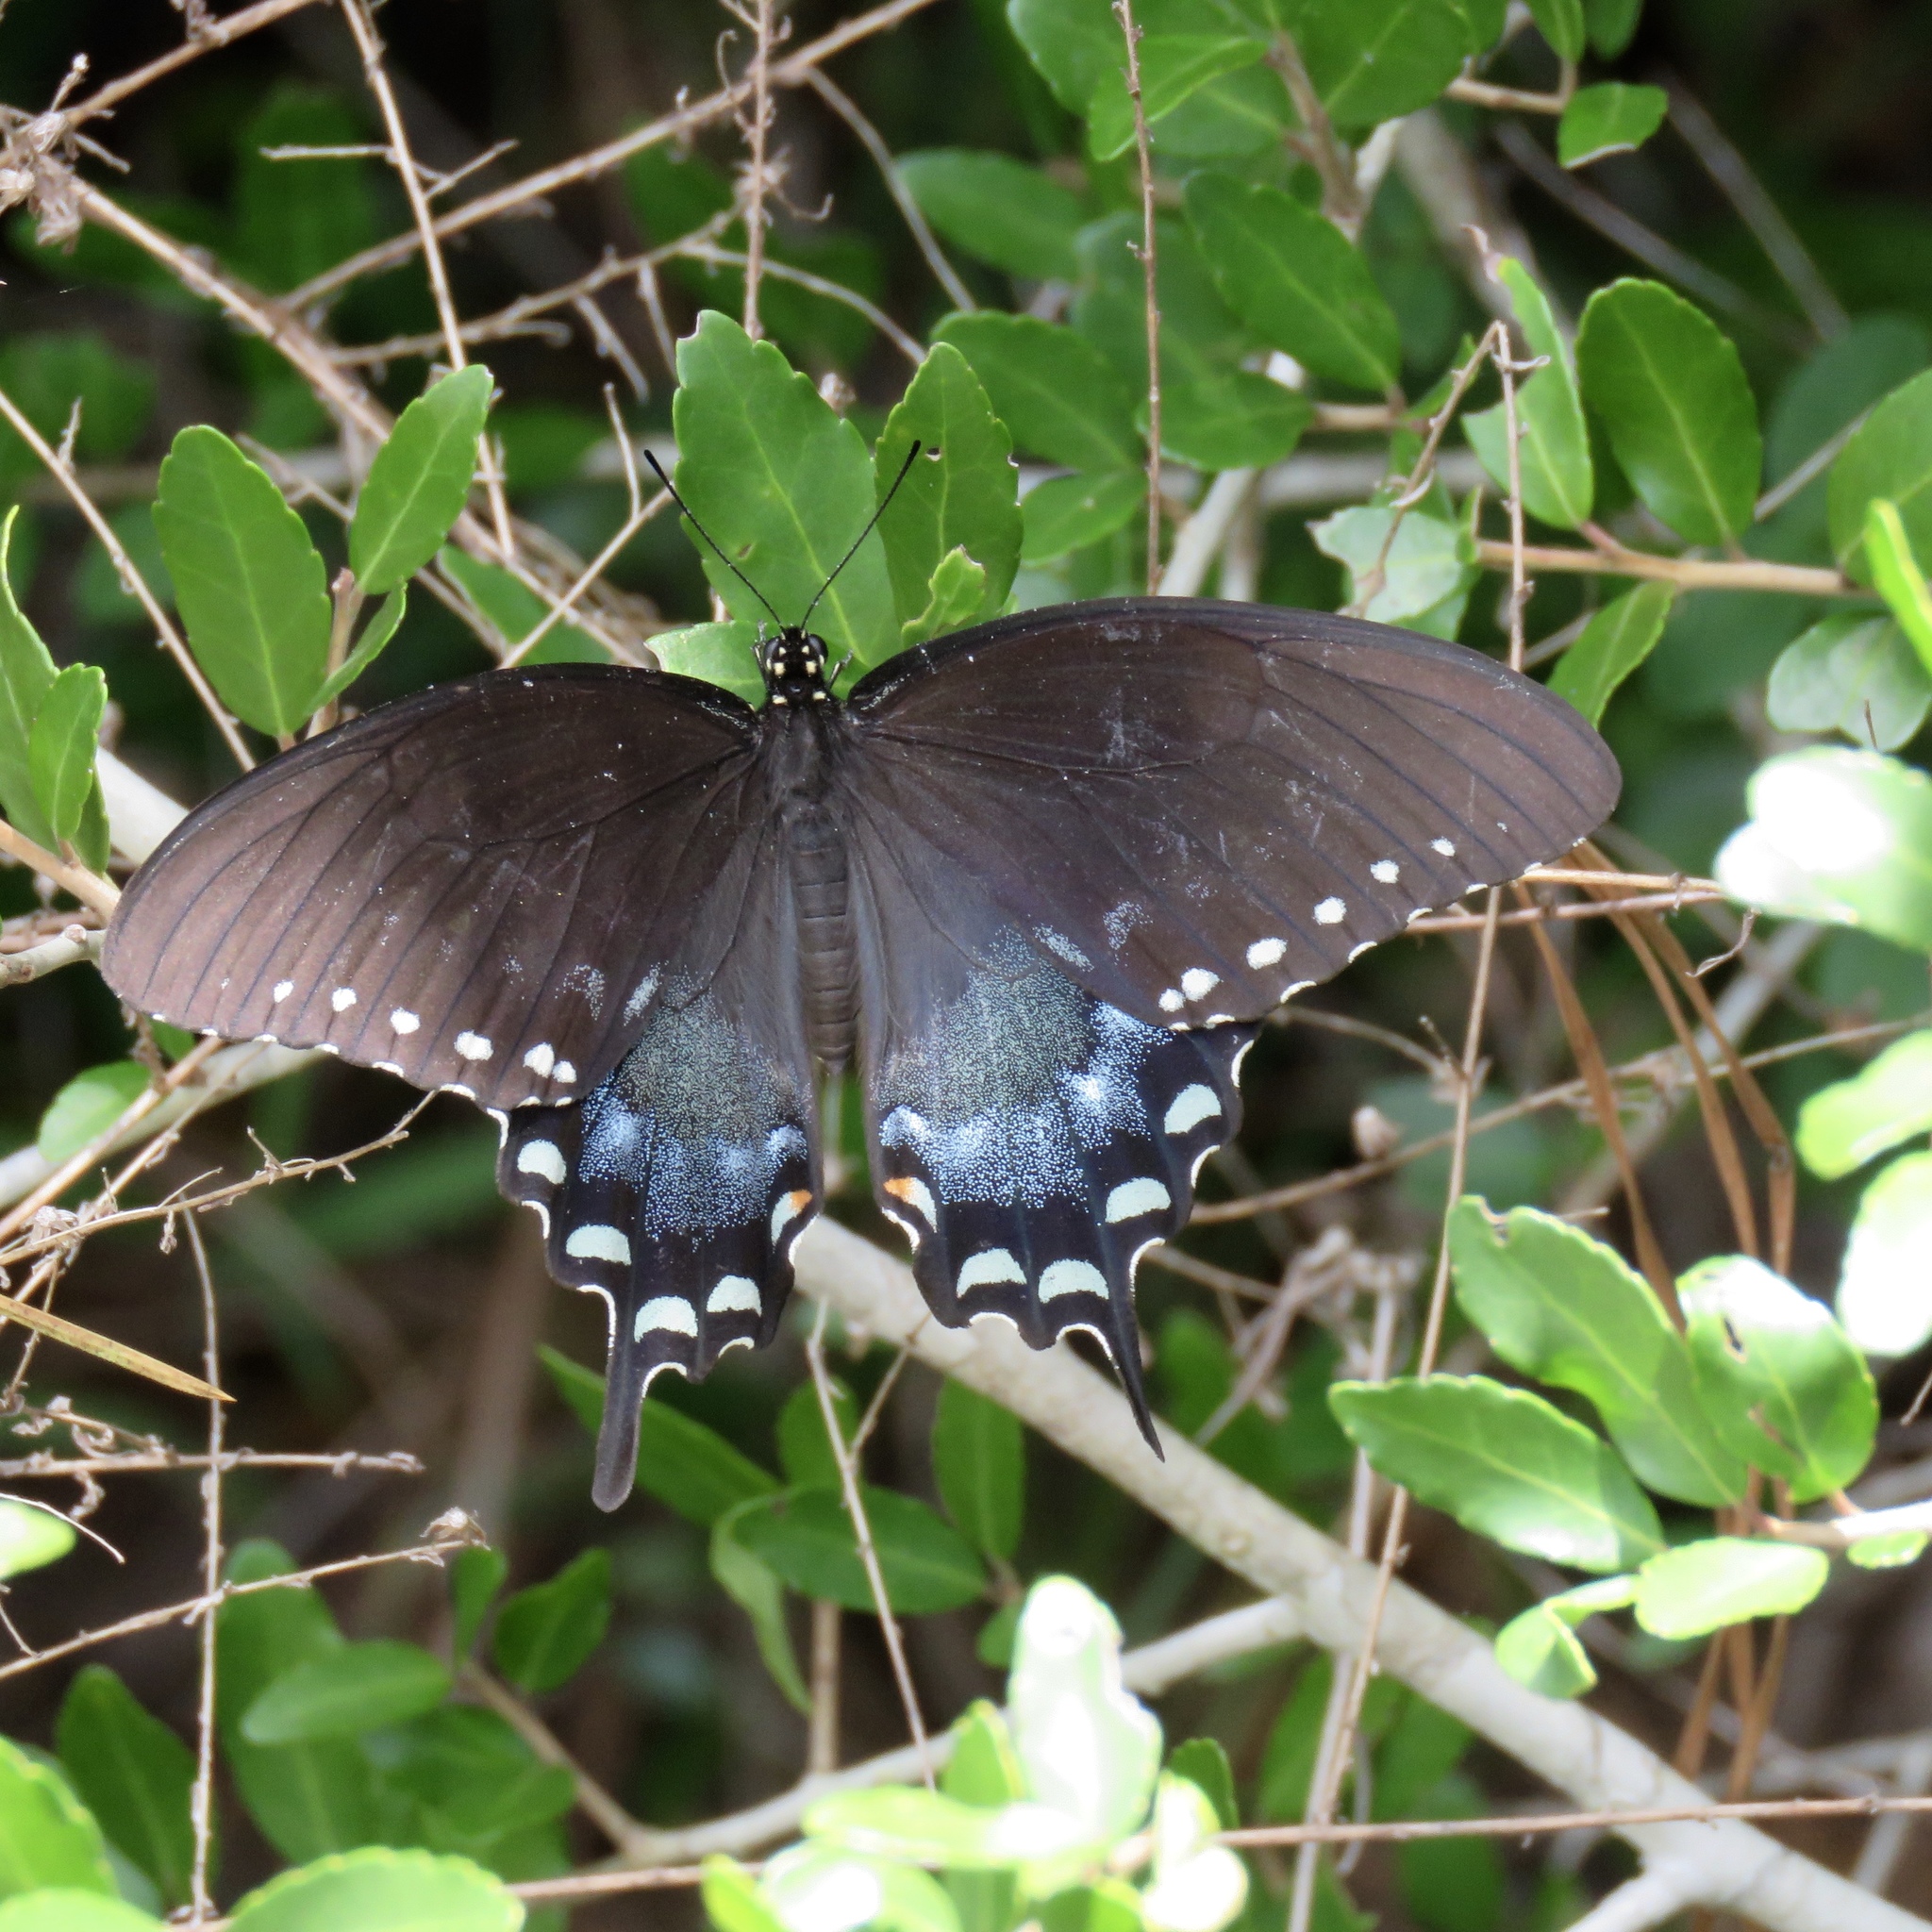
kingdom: Animalia
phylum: Arthropoda
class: Insecta
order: Lepidoptera
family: Papilionidae
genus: Papilio
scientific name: Papilio troilus
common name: Spicebush swallowtail
